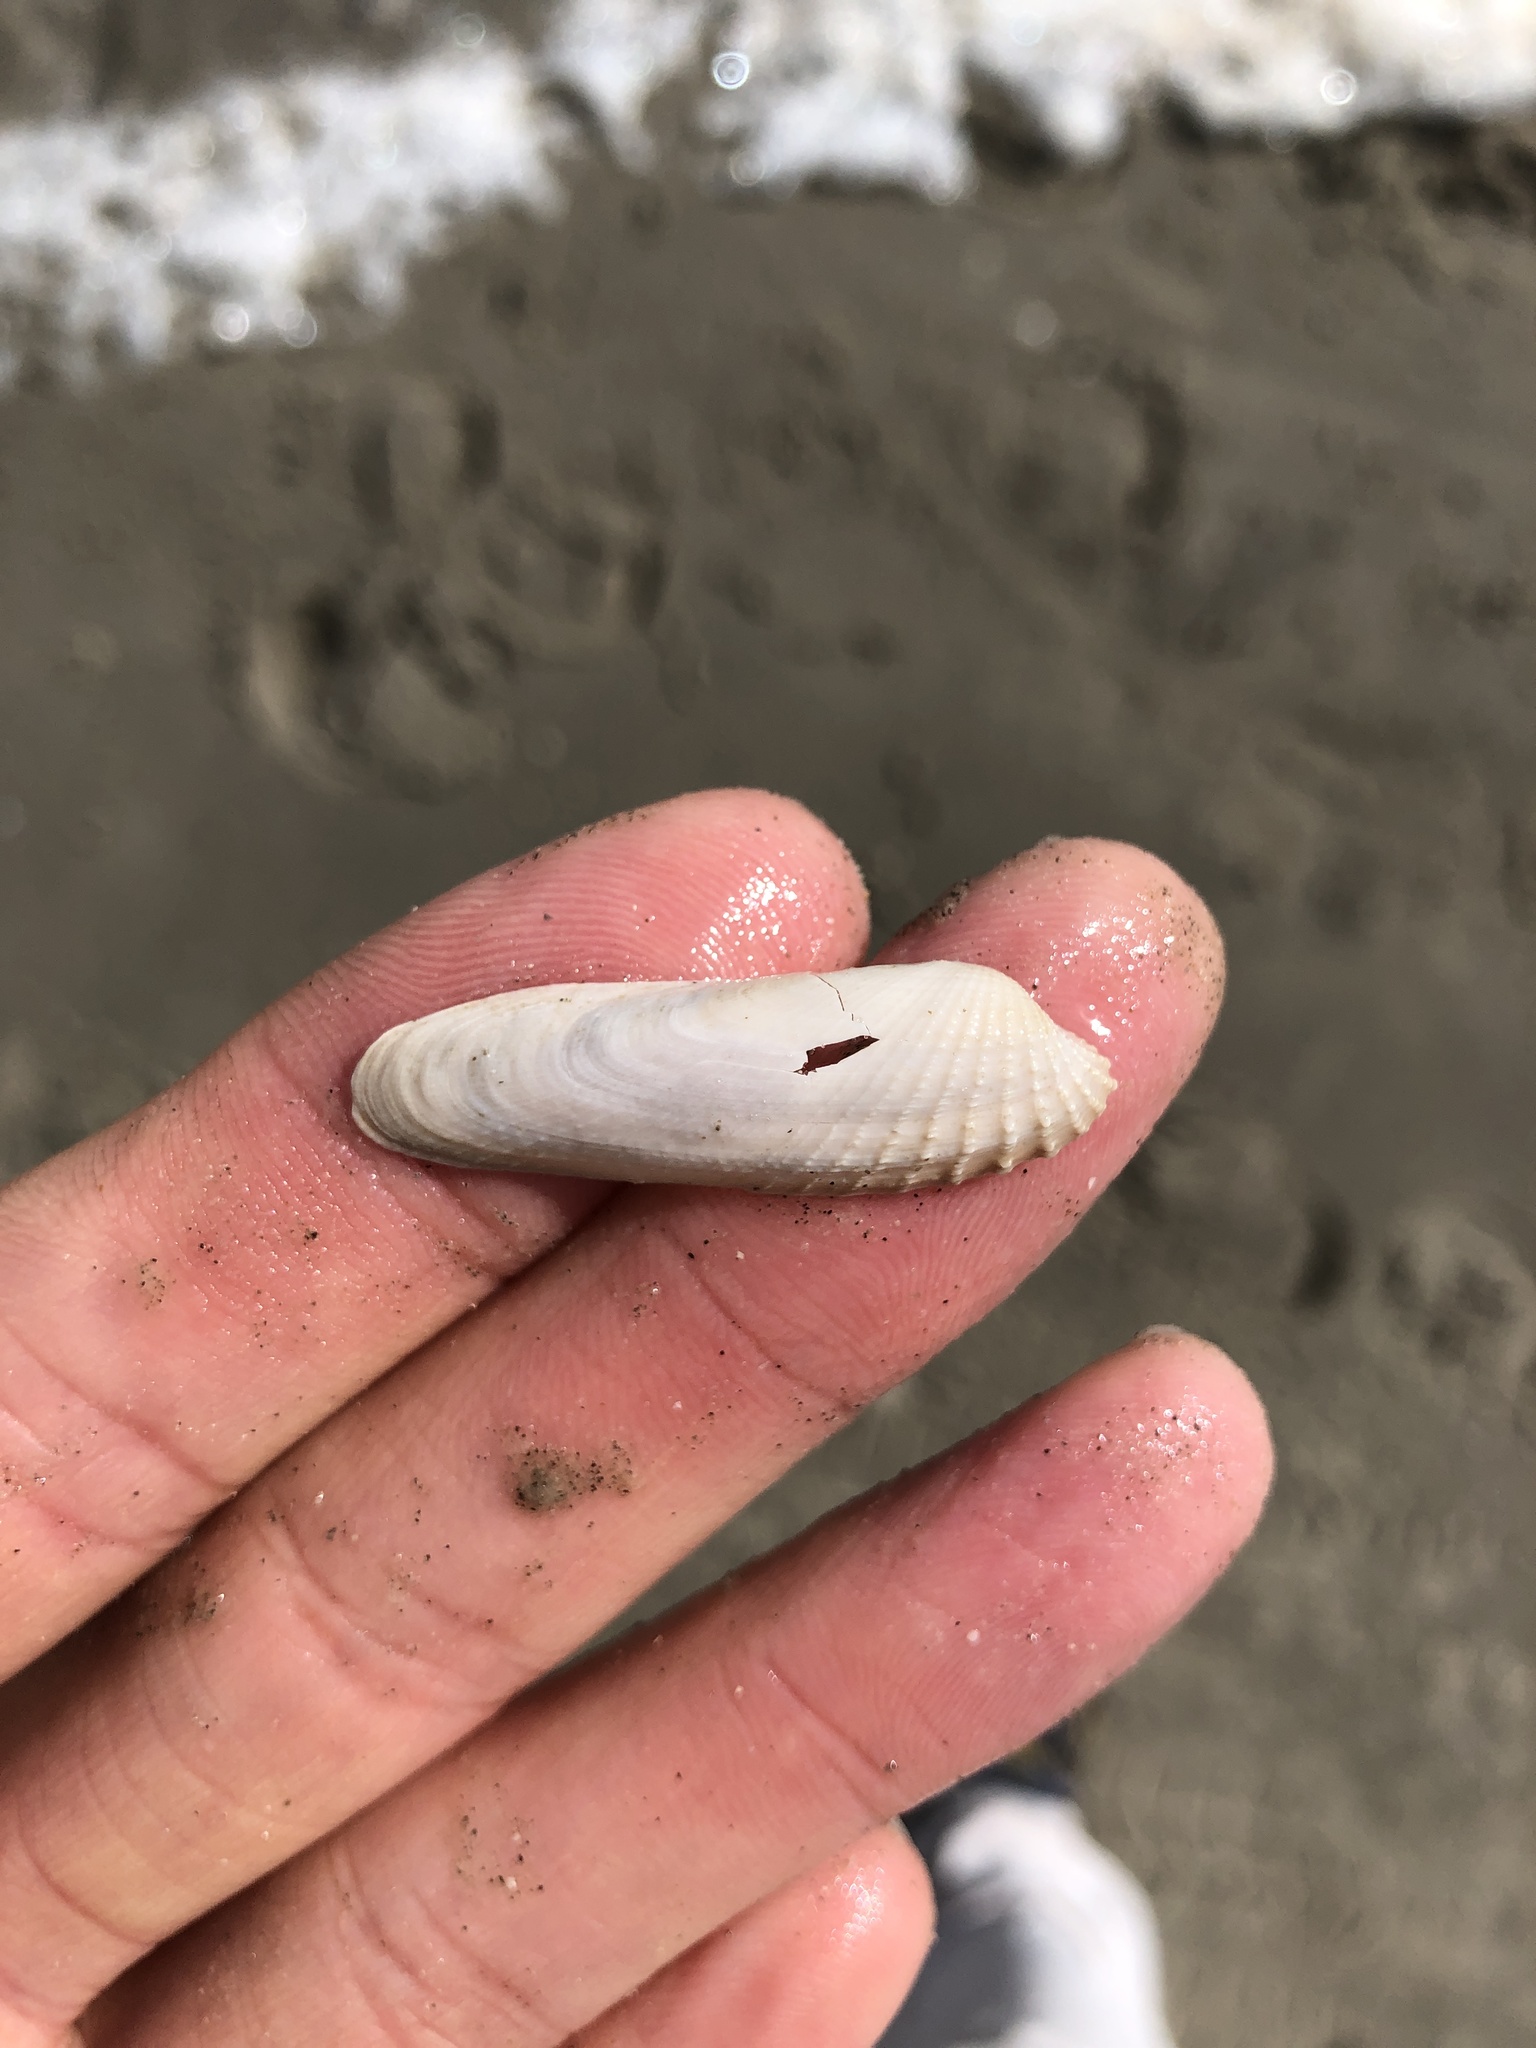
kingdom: Animalia
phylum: Mollusca
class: Bivalvia
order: Venerida
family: Veneridae
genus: Petricolaria
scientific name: Petricolaria pholadiformis
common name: American piddock
